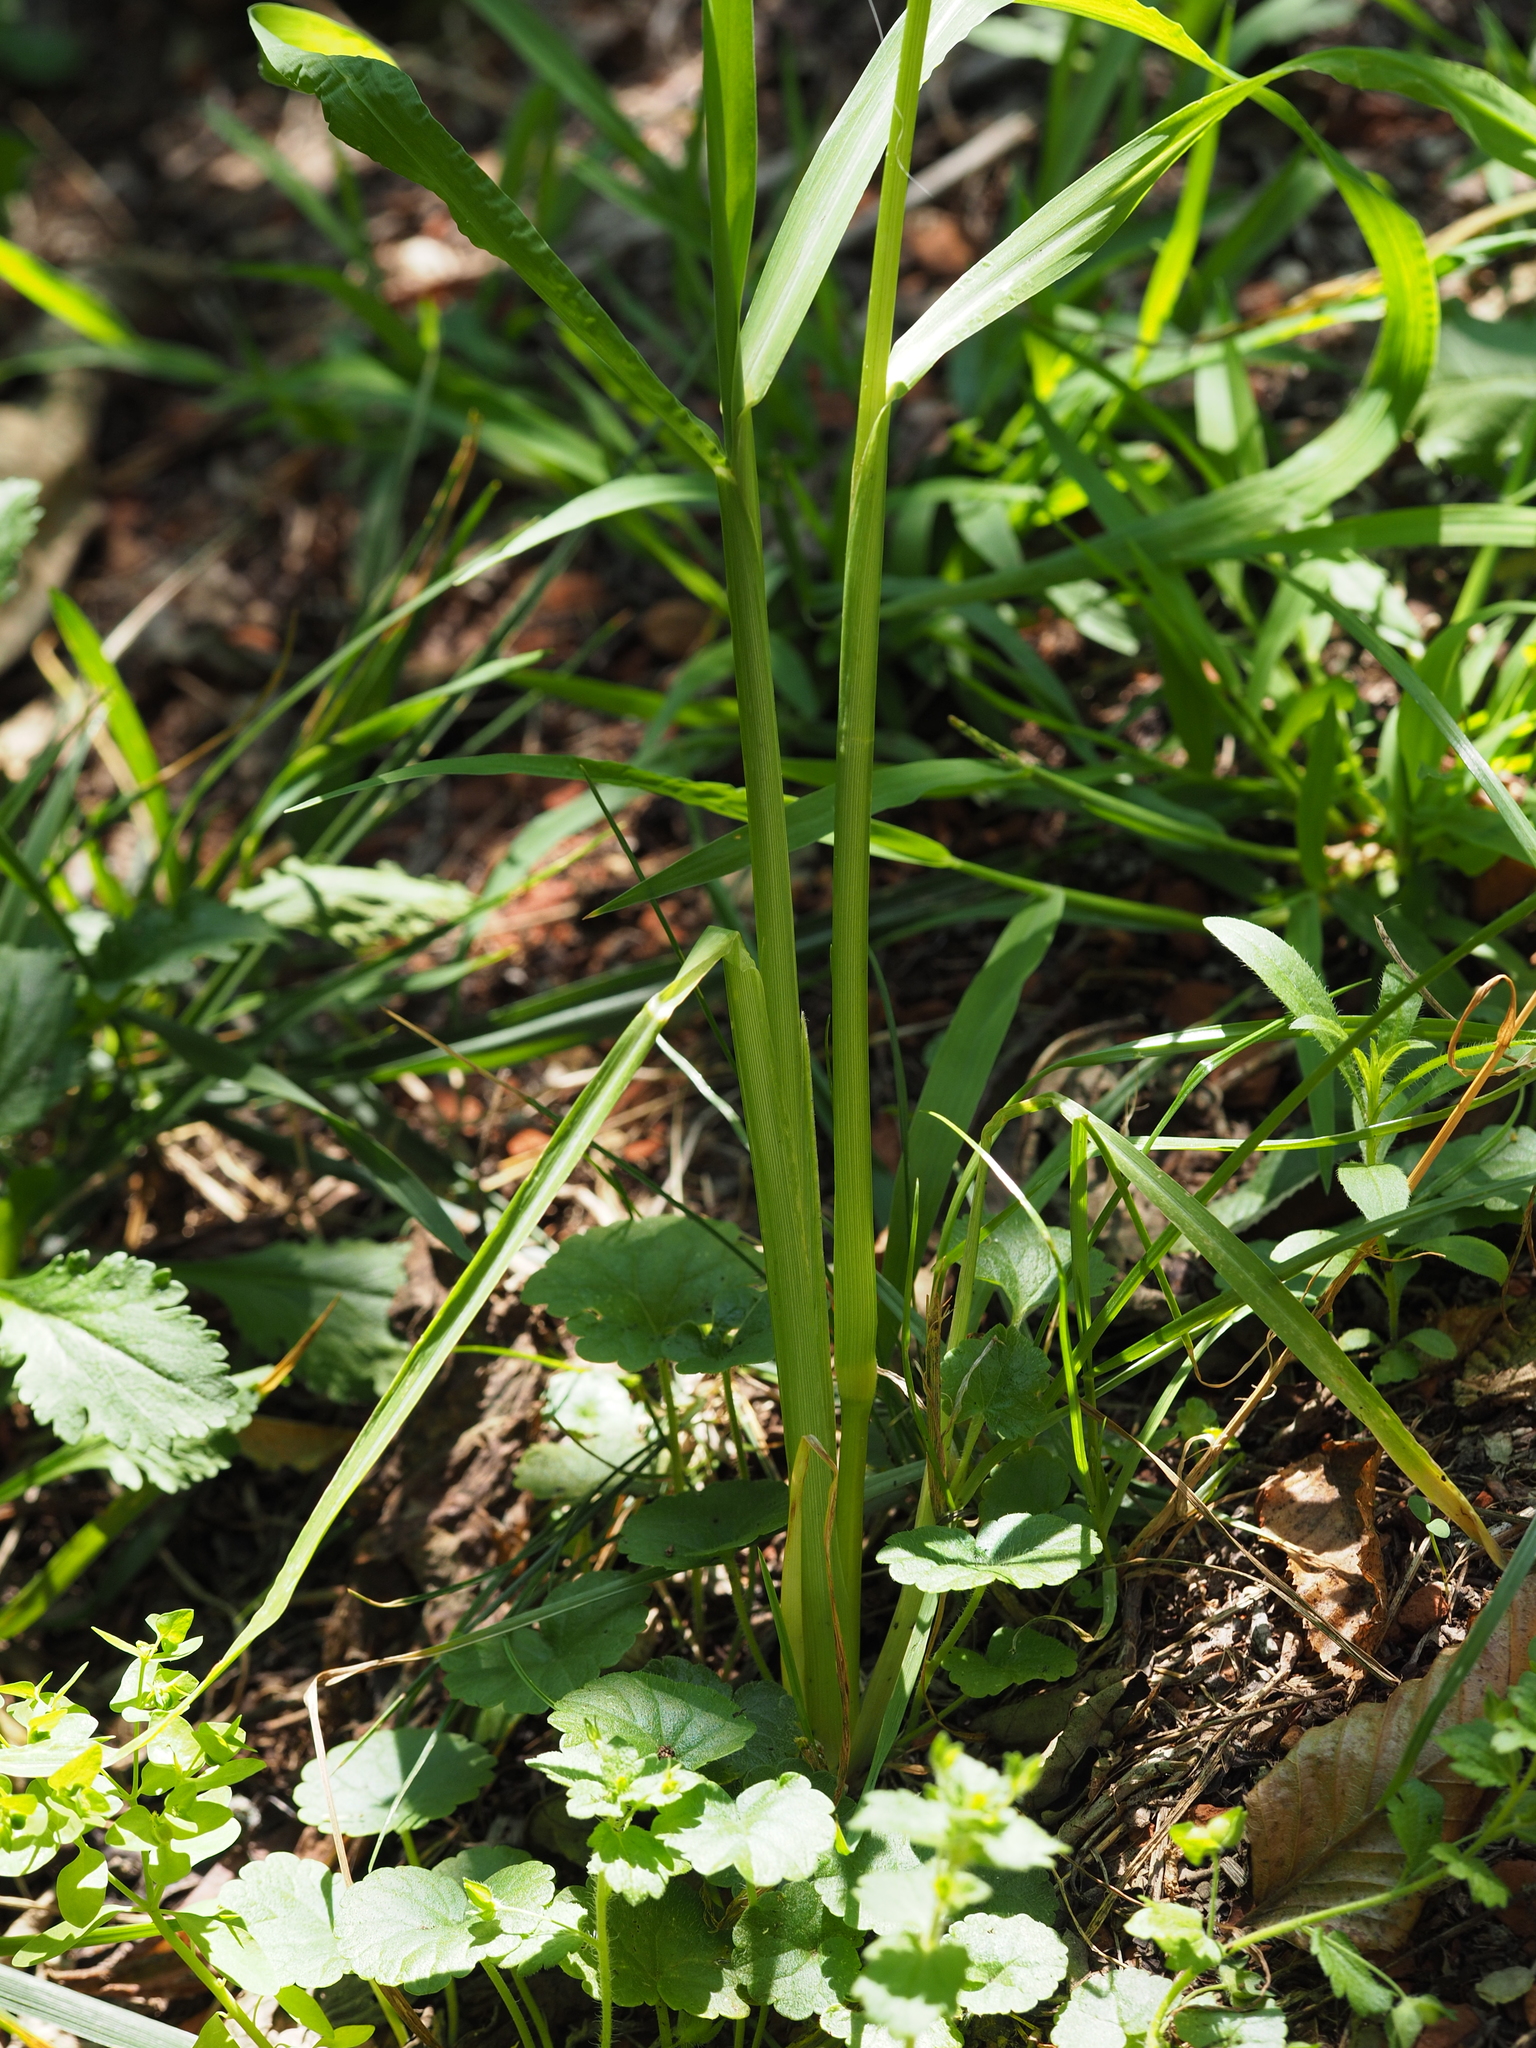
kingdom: Plantae
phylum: Tracheophyta
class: Liliopsida
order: Poales
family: Poaceae
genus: Echinochloa
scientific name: Echinochloa crus-galli
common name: Cockspur
